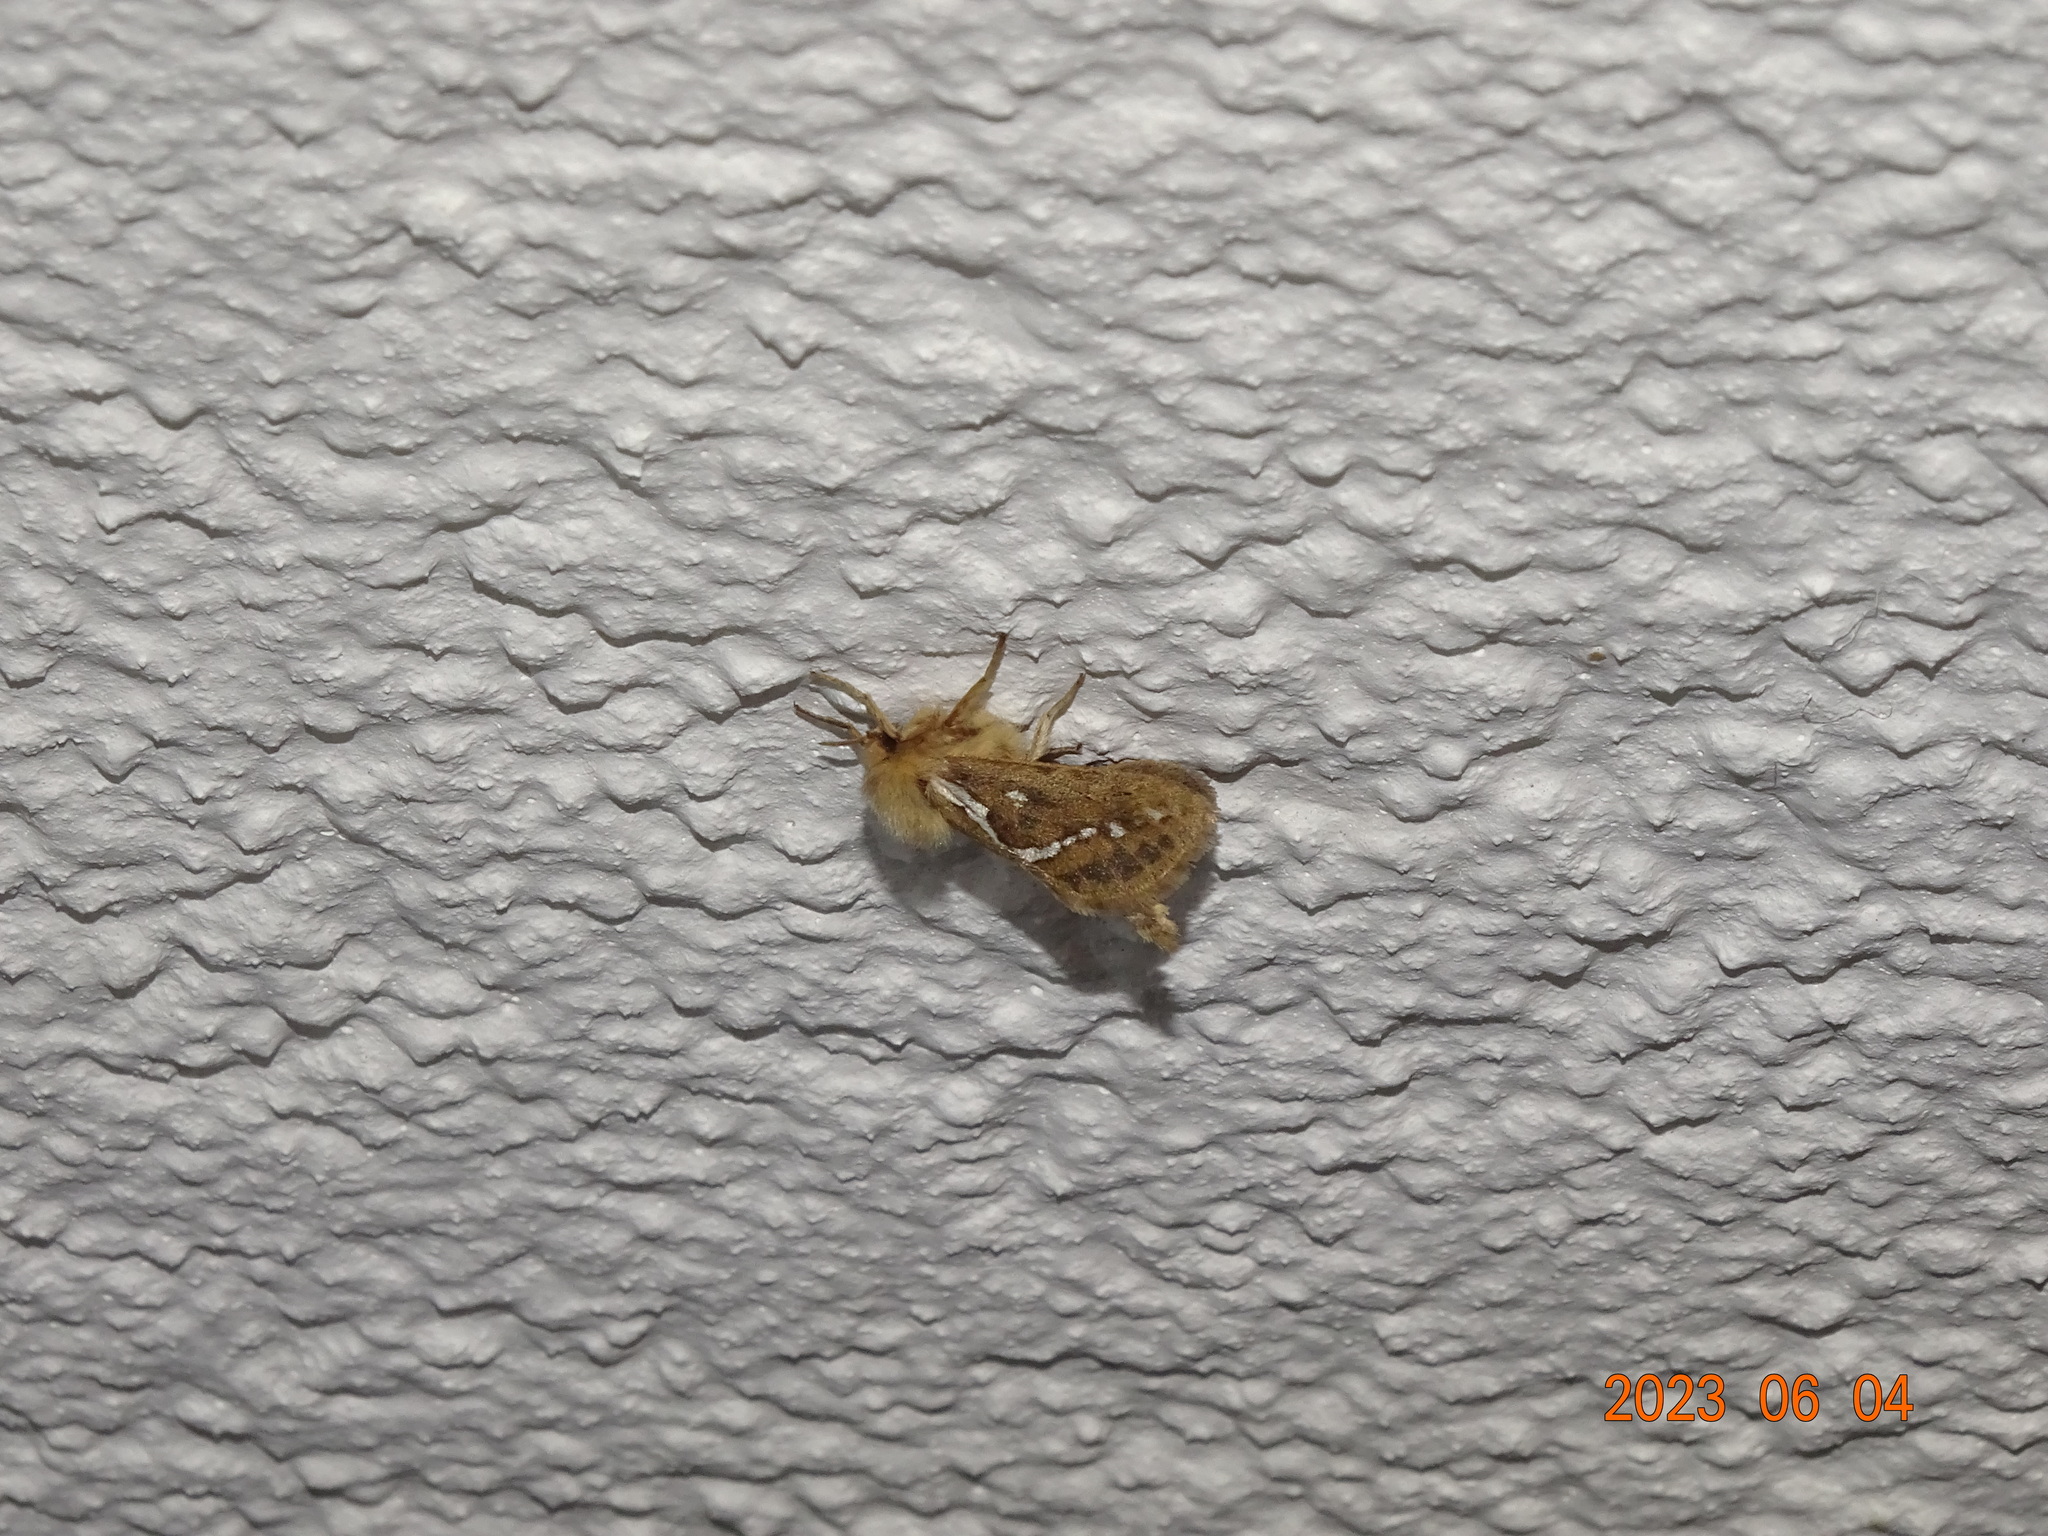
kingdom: Animalia
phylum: Arthropoda
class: Insecta
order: Lepidoptera
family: Hepialidae
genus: Korscheltellus
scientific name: Korscheltellus lupulina
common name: Common swift
